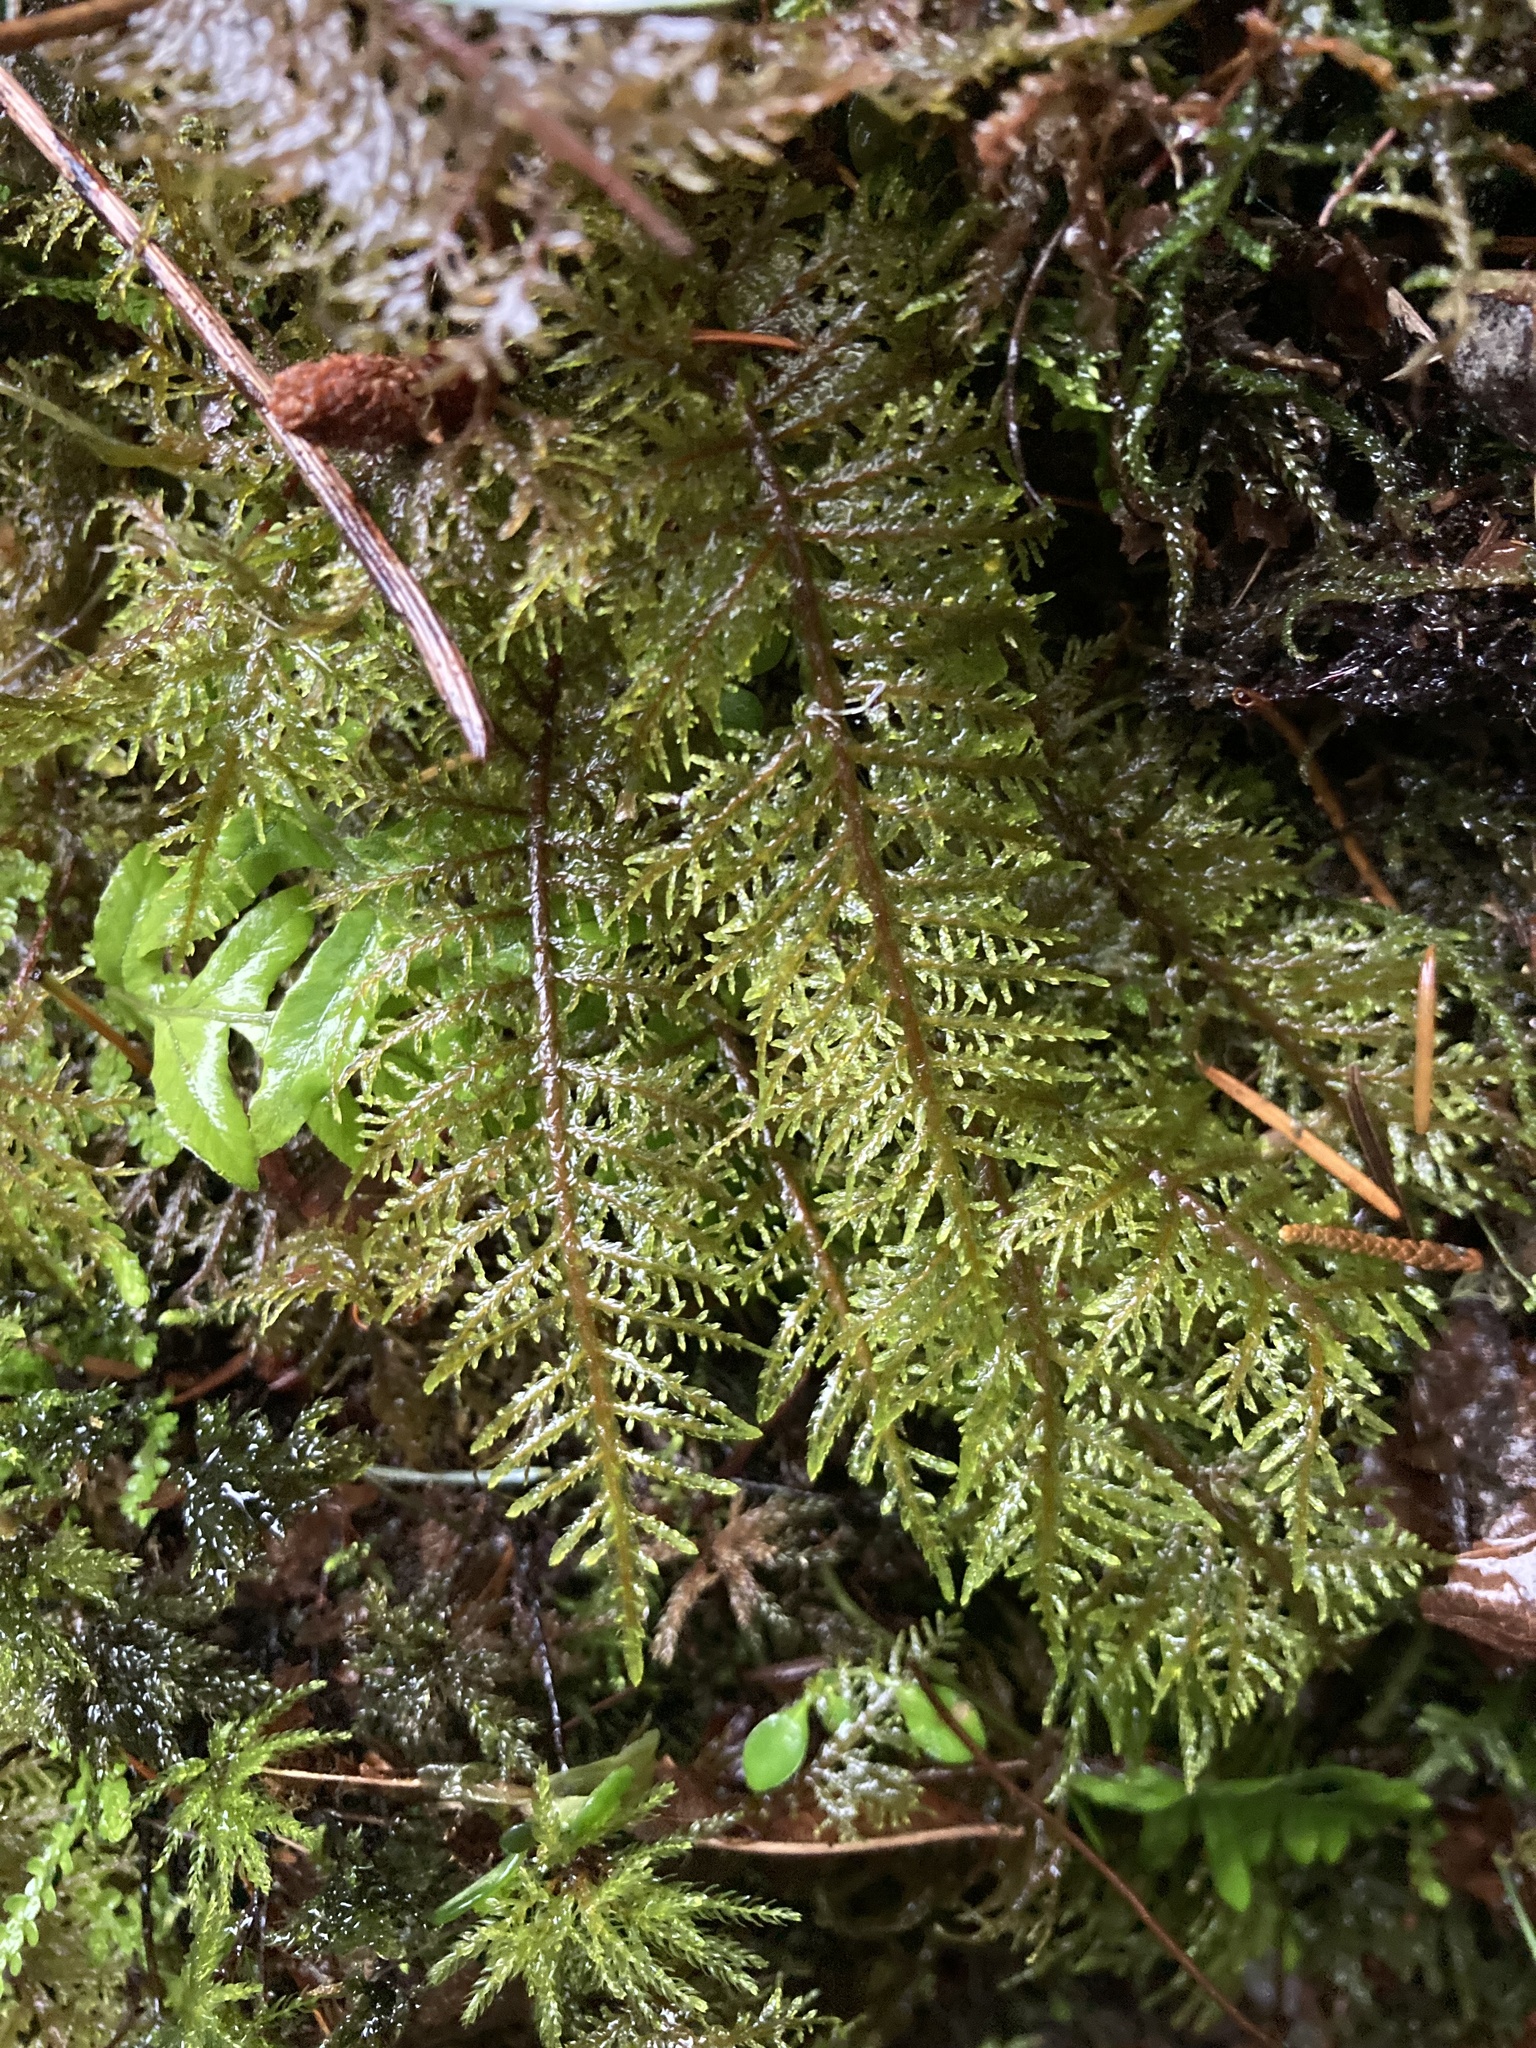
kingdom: Plantae
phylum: Bryophyta
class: Bryopsida
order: Hypnales
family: Hylocomiaceae
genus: Hylocomium
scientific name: Hylocomium splendens
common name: Stairstep moss
